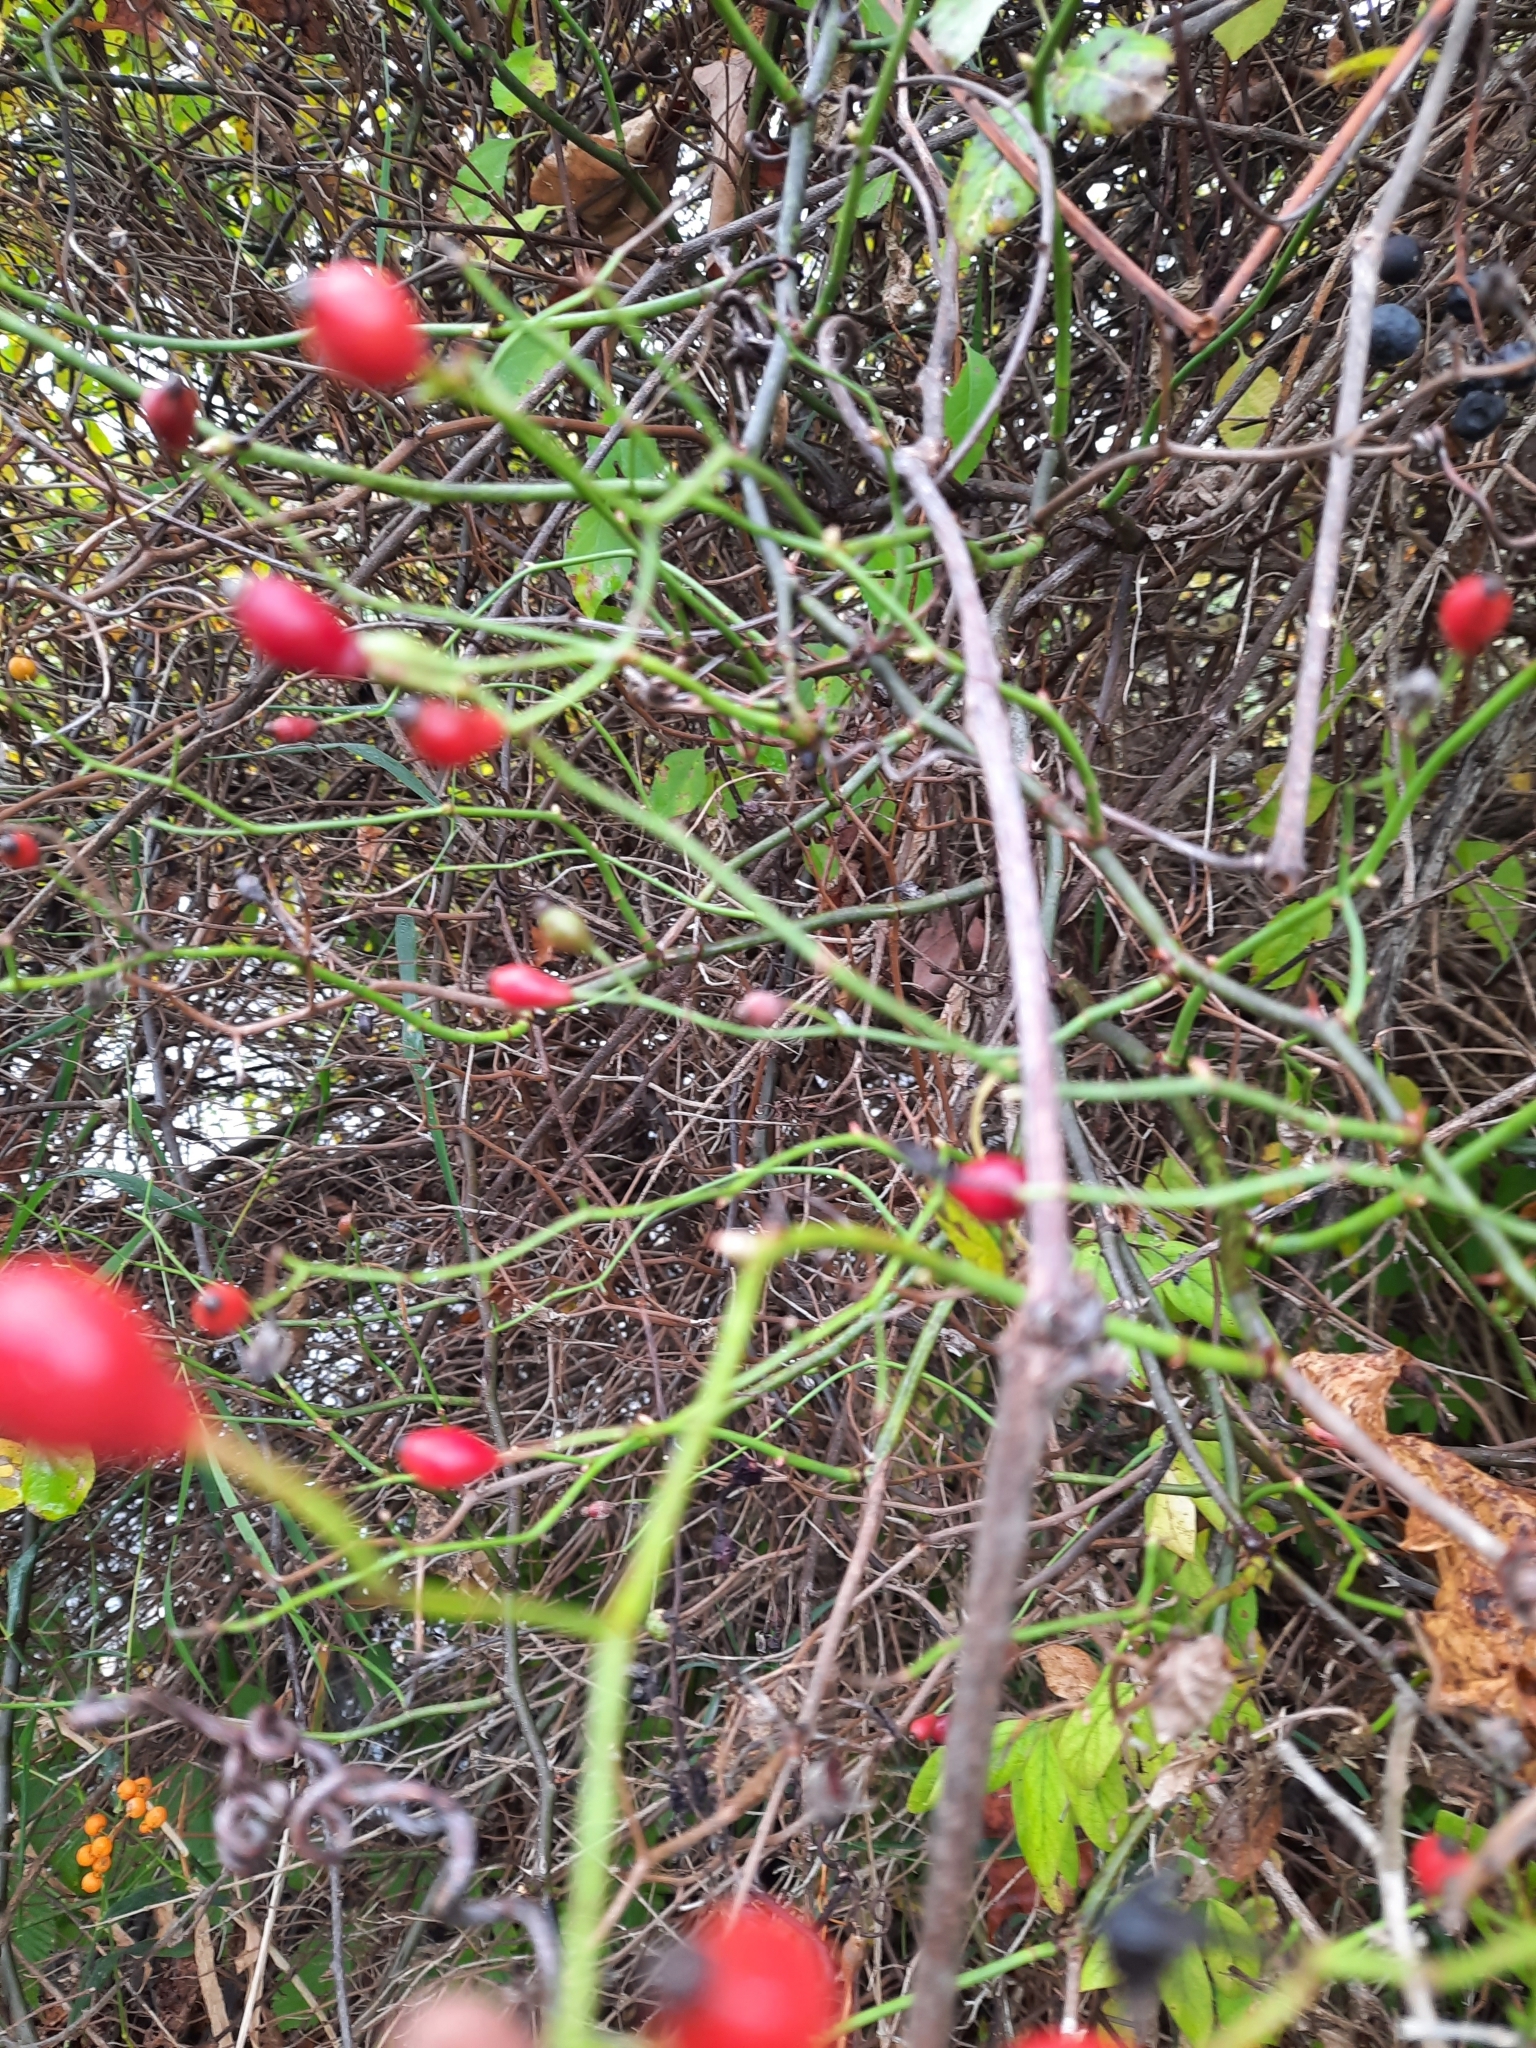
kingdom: Plantae
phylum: Tracheophyta
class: Magnoliopsida
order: Rosales
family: Rosaceae
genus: Rosa
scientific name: Rosa multiflora
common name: Multiflora rose
